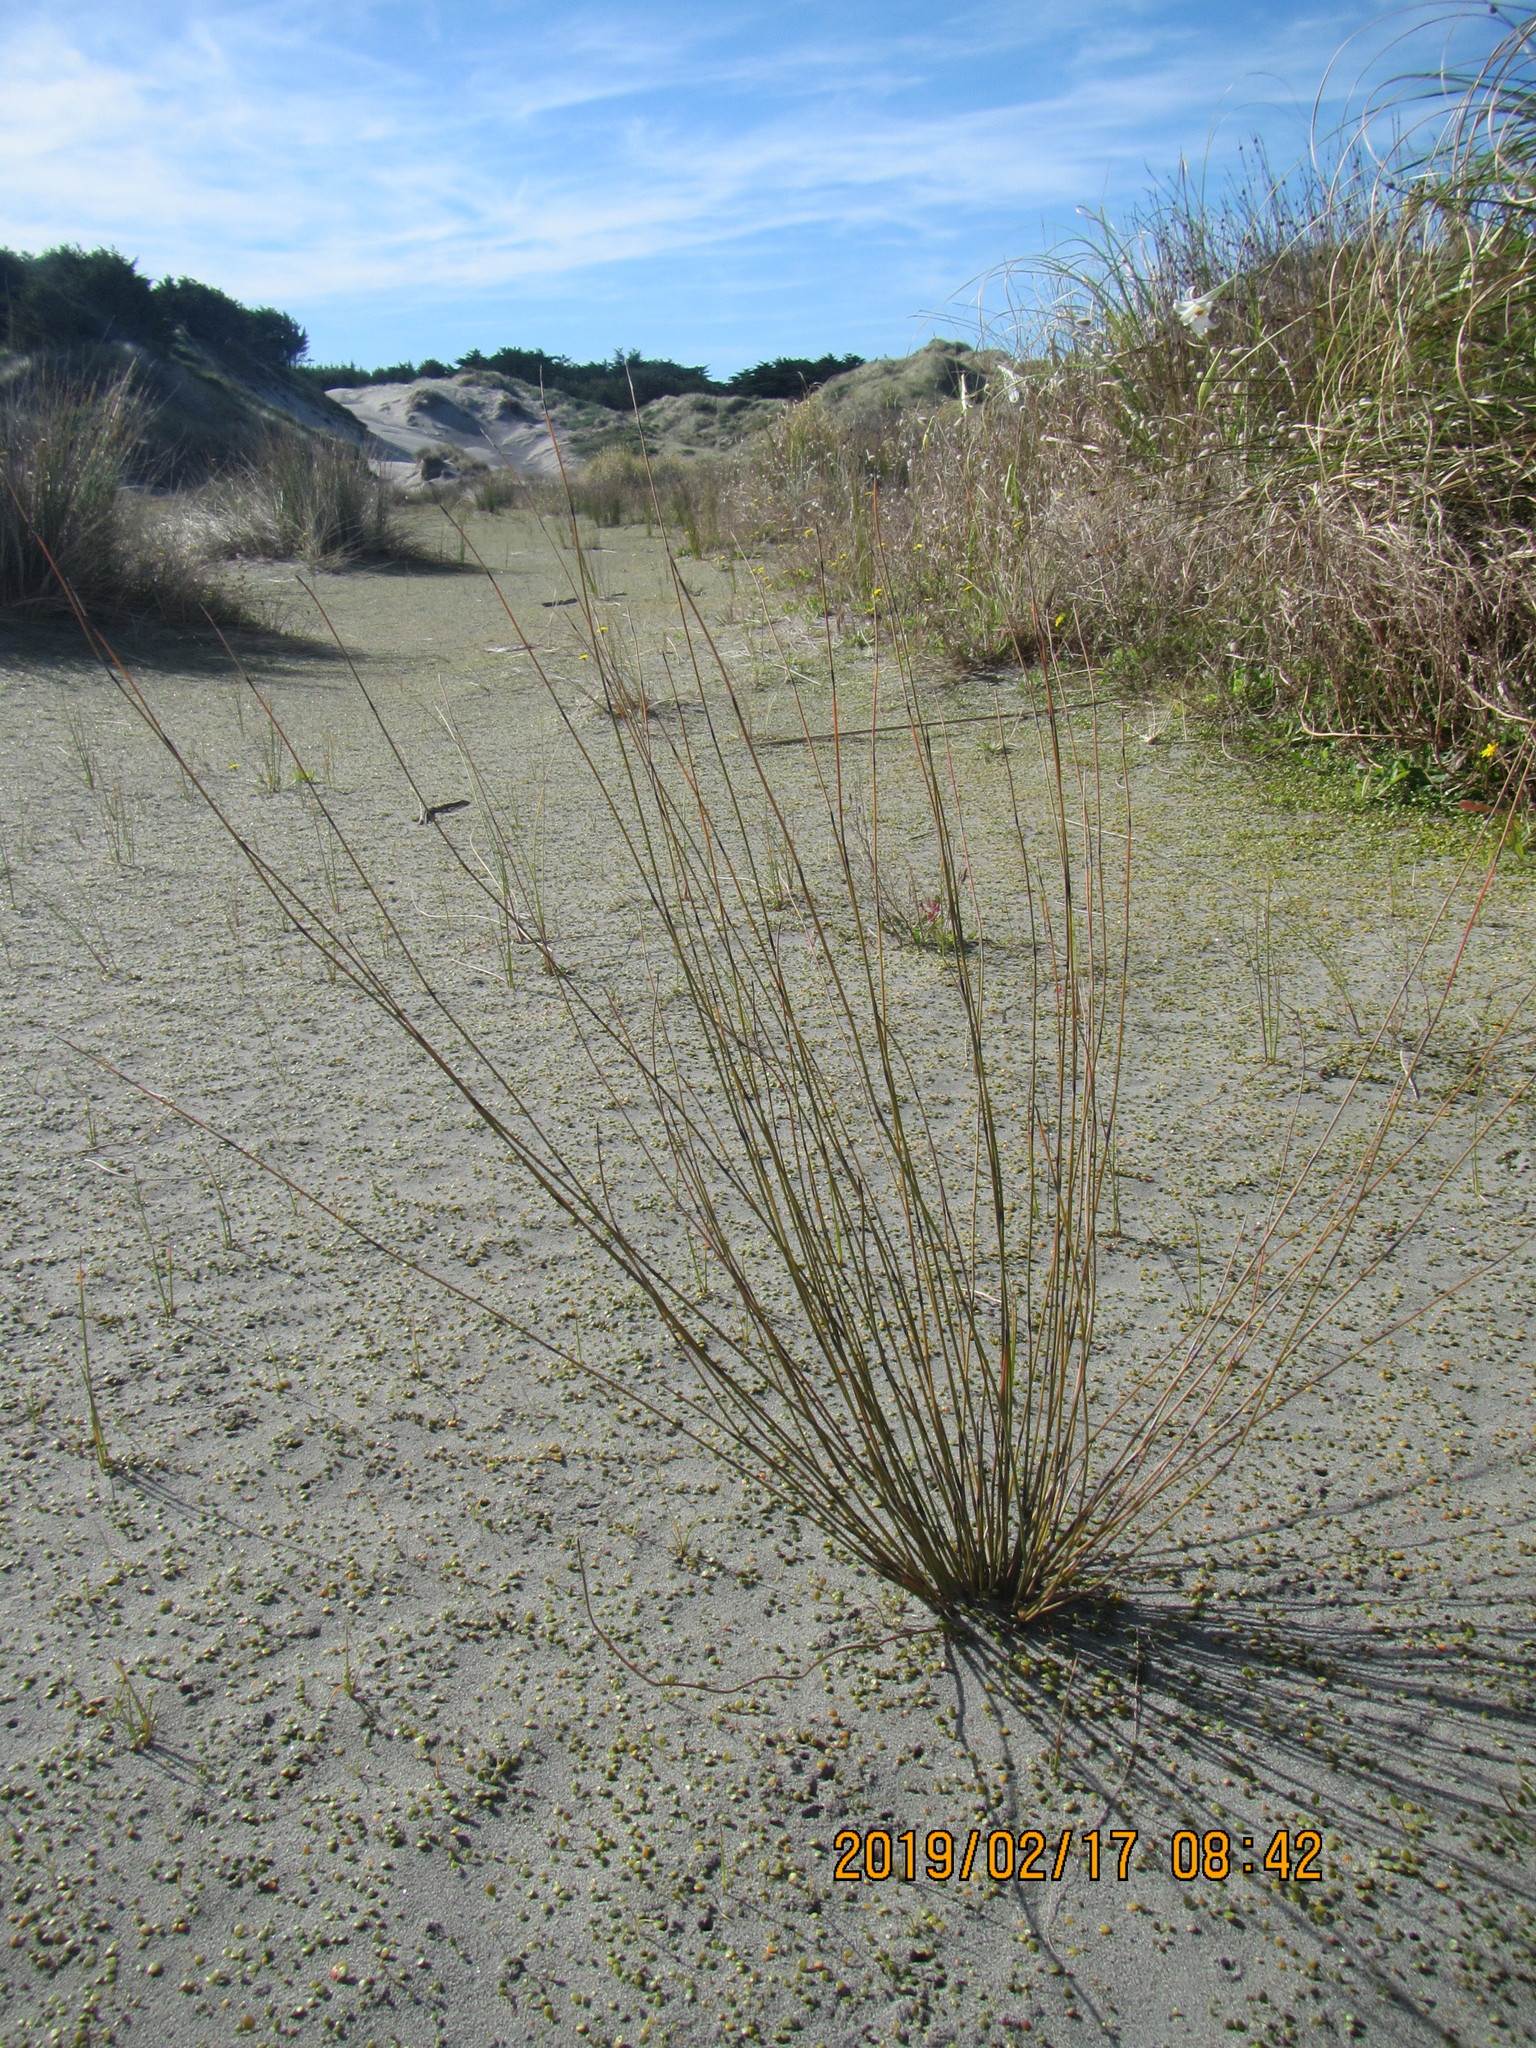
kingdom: Plantae
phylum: Tracheophyta
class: Liliopsida
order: Poales
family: Restionaceae
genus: Apodasmia
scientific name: Apodasmia similis
